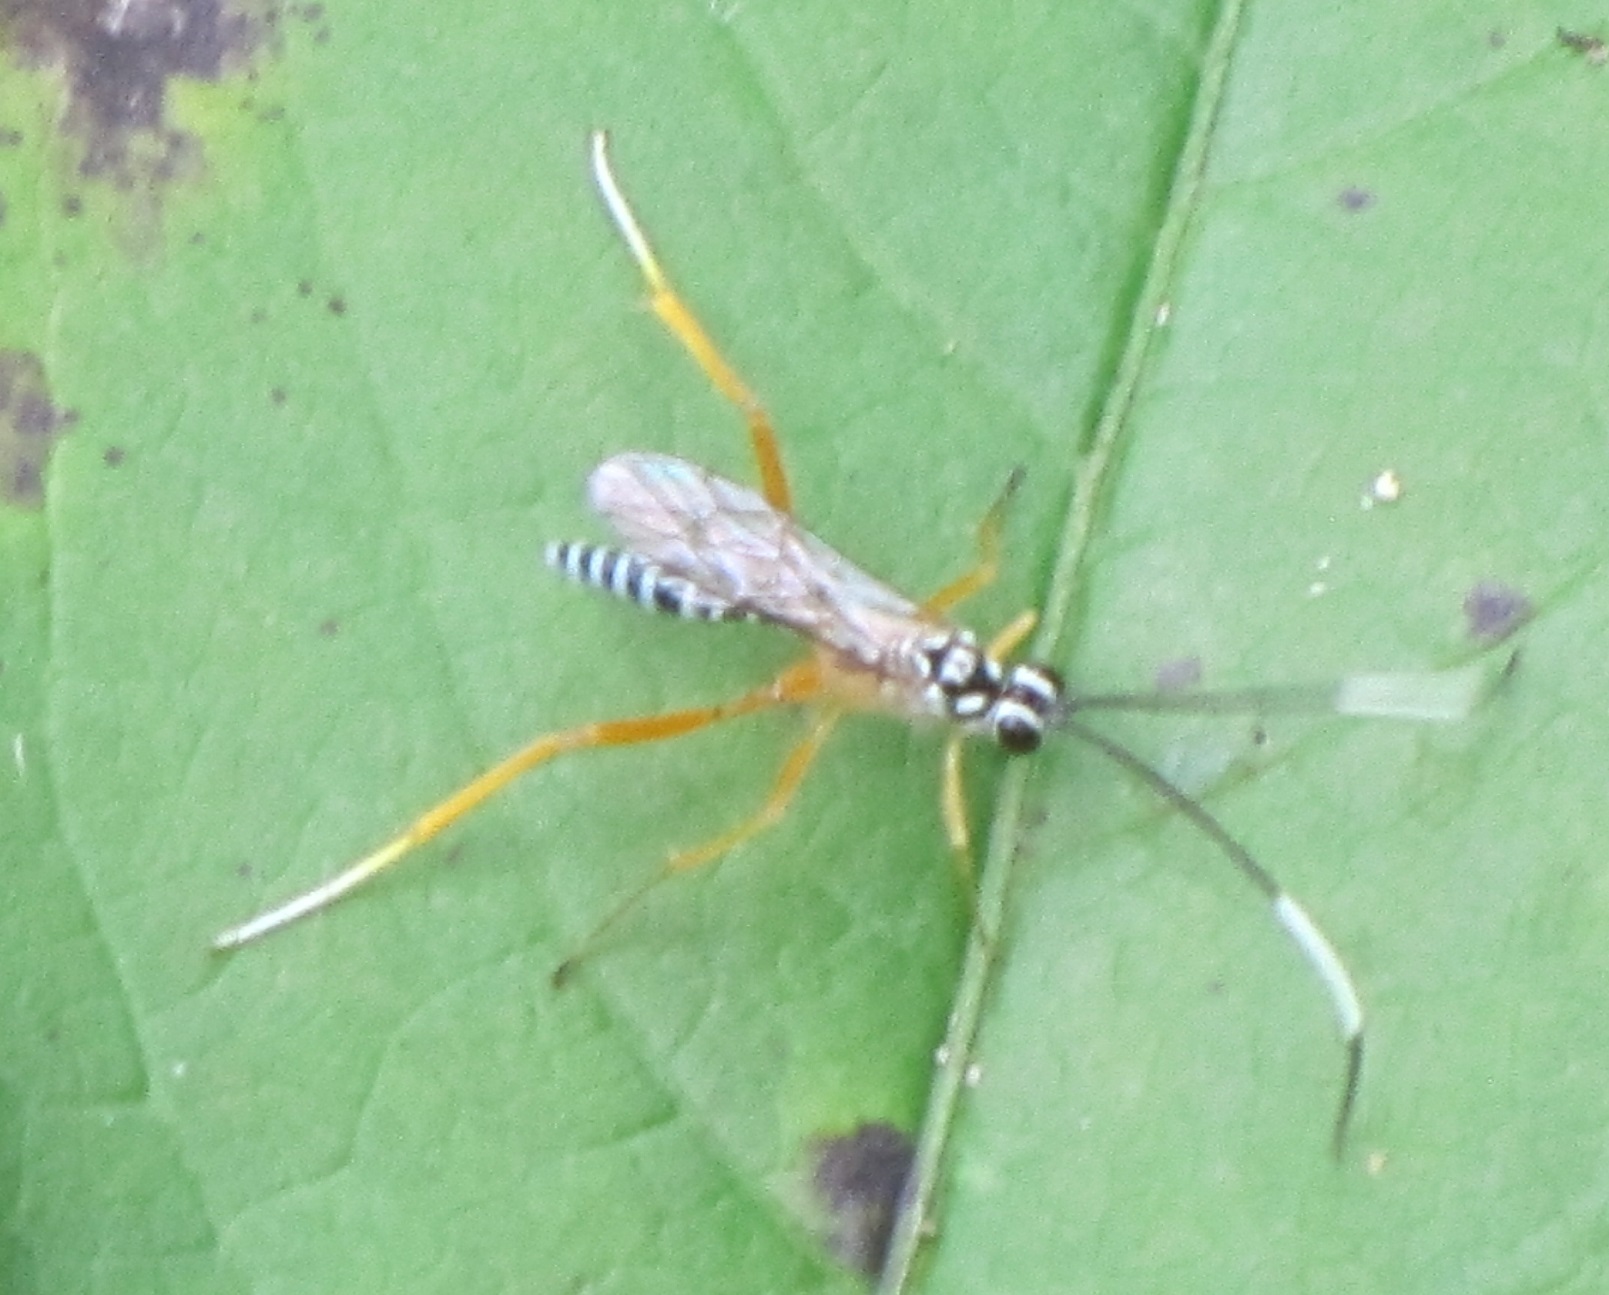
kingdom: Animalia
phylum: Arthropoda
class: Insecta
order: Hymenoptera
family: Ichneumonidae
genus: Polycyrtus
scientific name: Polycyrtus neglectus
